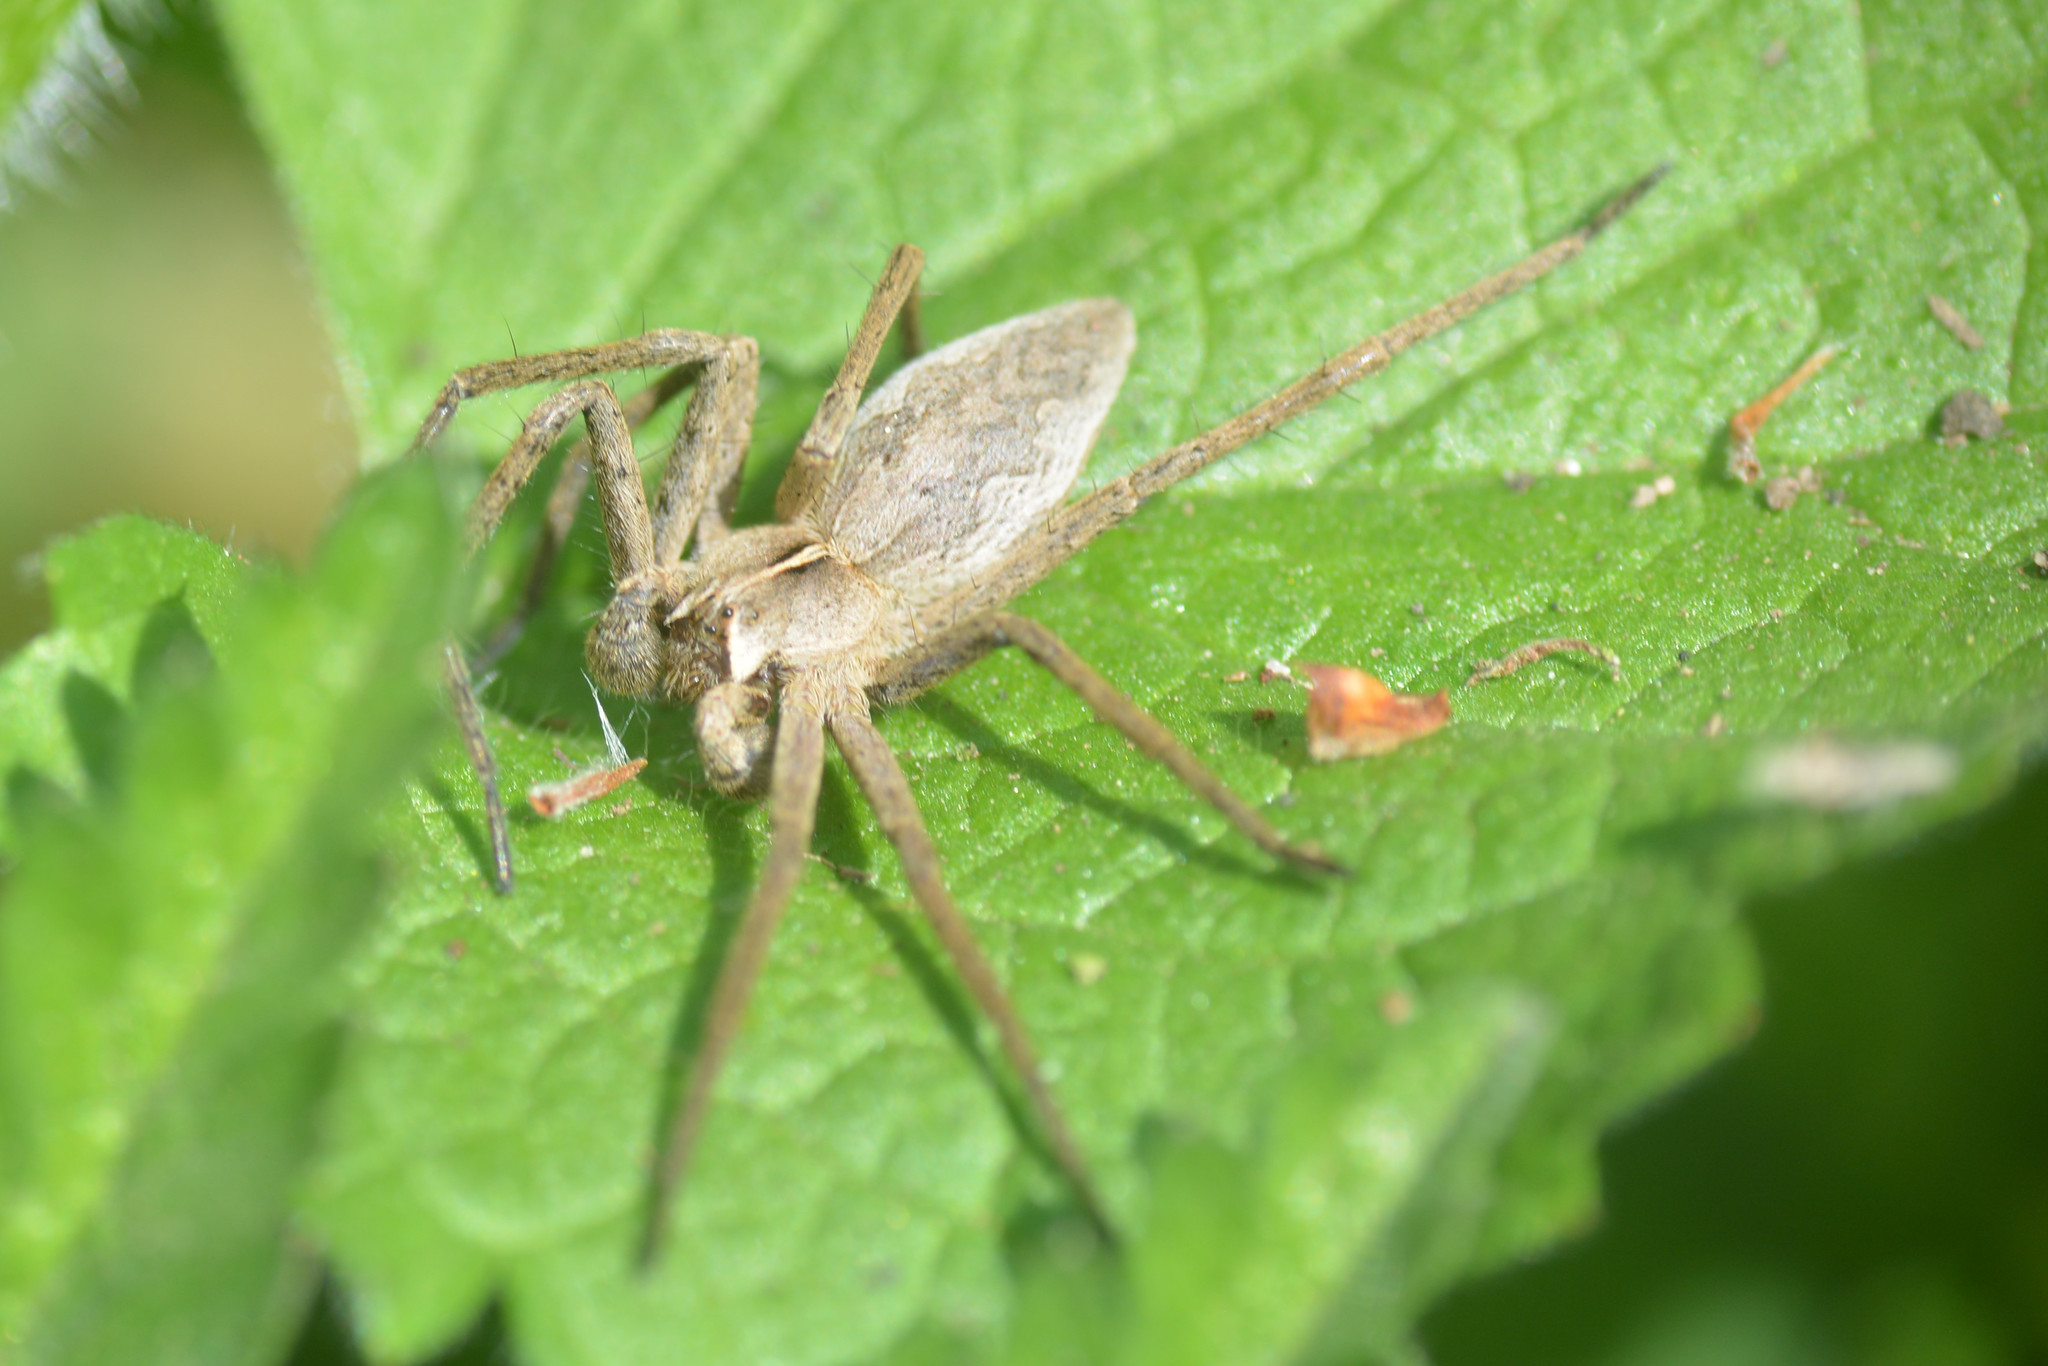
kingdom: Animalia
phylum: Arthropoda
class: Arachnida
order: Araneae
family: Pisauridae
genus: Pisaura
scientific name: Pisaura mirabilis
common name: Tent spider
